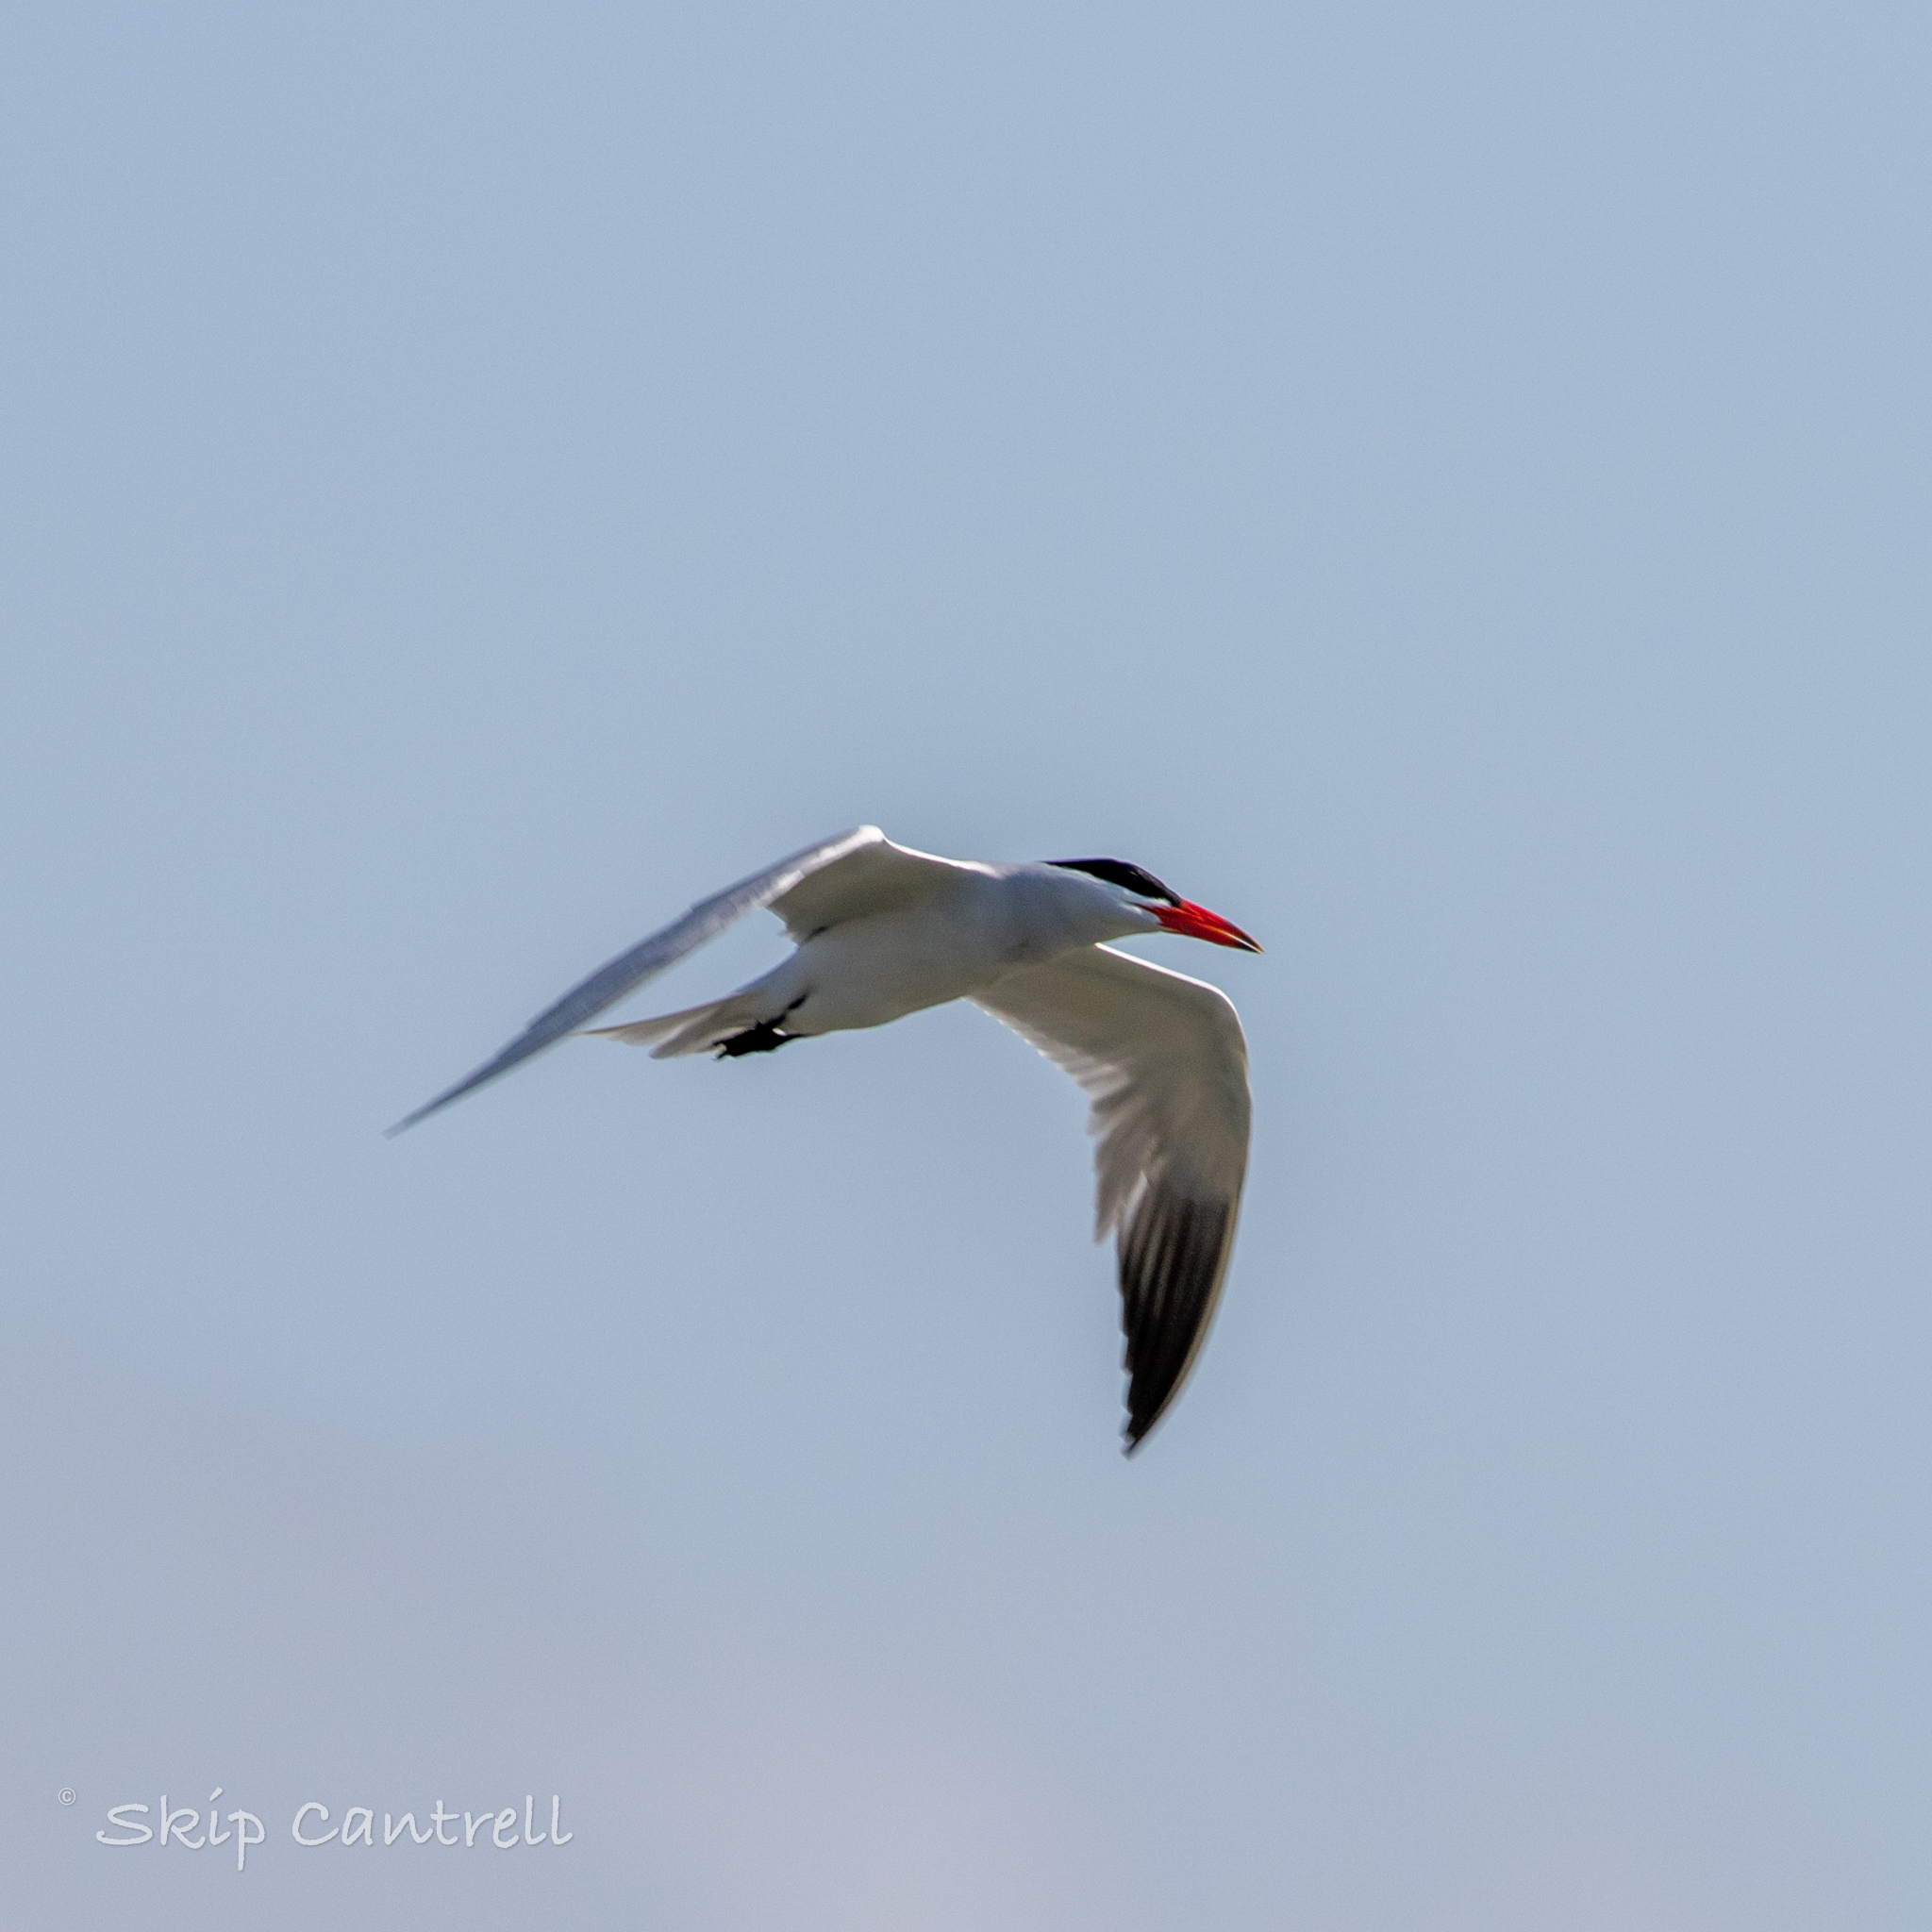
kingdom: Animalia
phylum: Chordata
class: Aves
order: Charadriiformes
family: Laridae
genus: Hydroprogne
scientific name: Hydroprogne caspia
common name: Caspian tern
